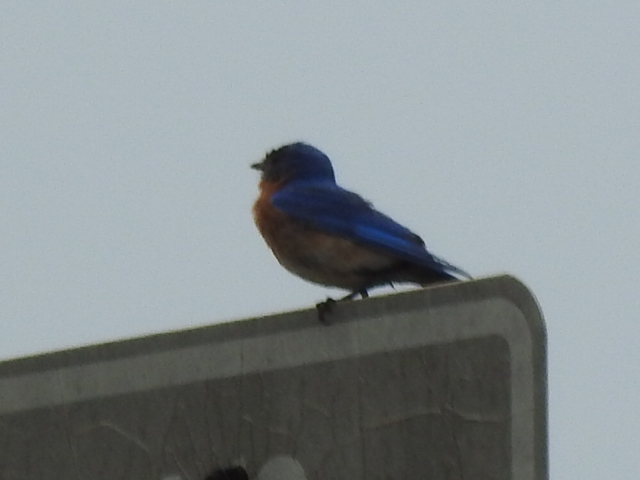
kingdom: Animalia
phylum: Chordata
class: Aves
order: Passeriformes
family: Turdidae
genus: Sialia
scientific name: Sialia sialis
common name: Eastern bluebird
